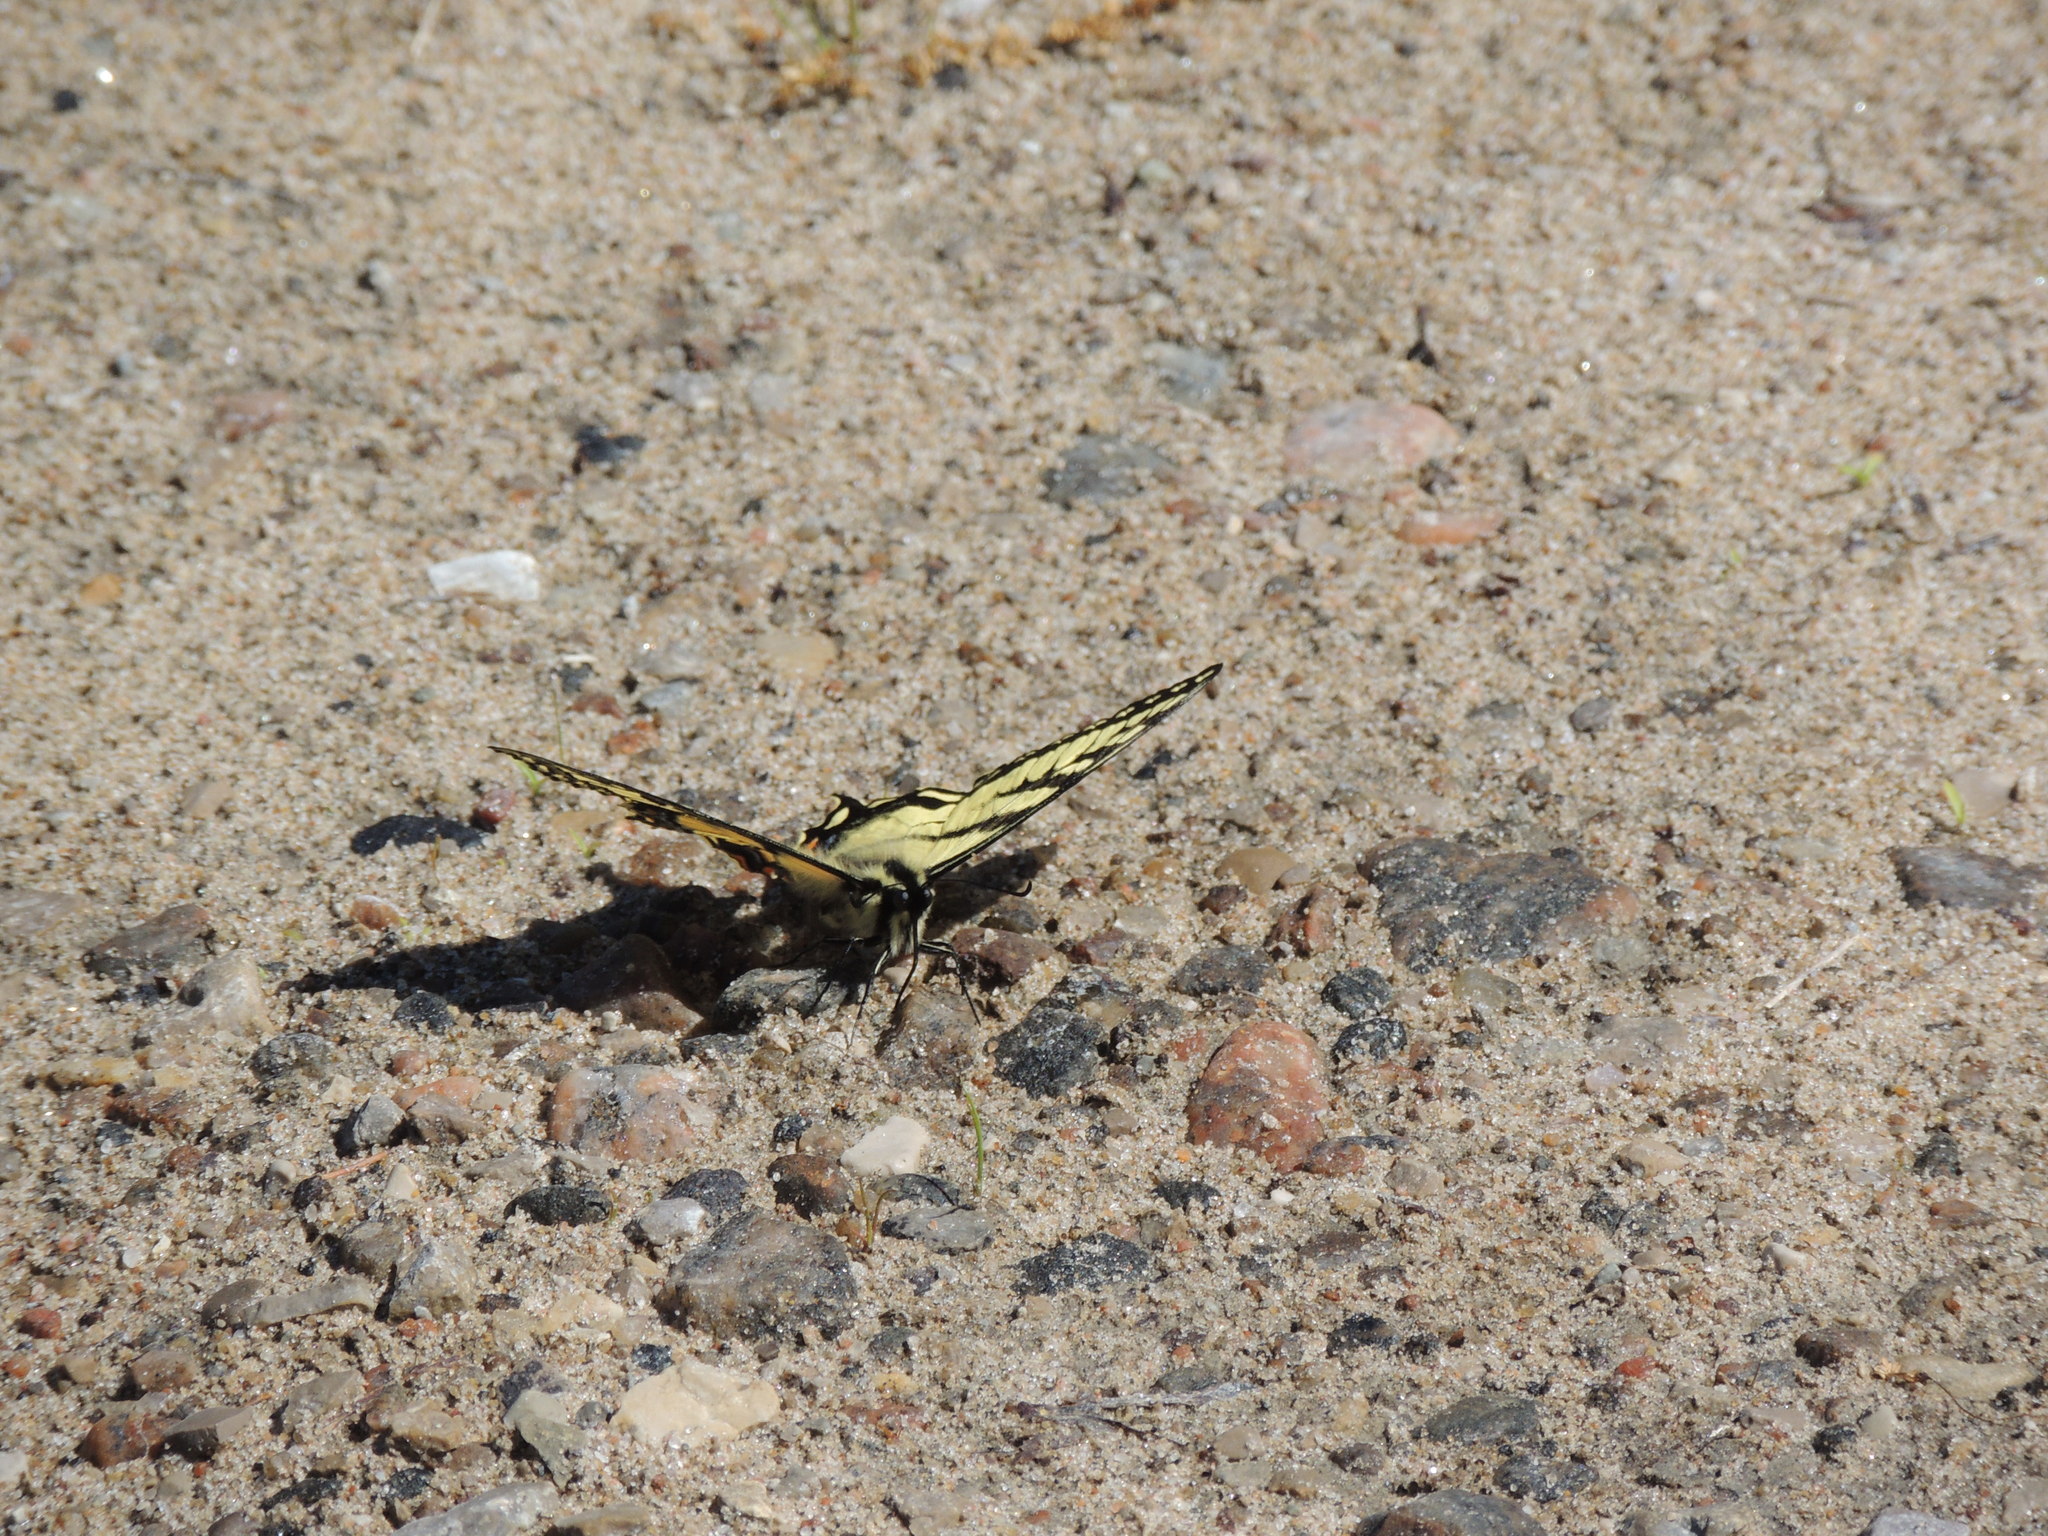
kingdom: Animalia
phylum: Arthropoda
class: Insecta
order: Lepidoptera
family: Papilionidae
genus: Papilio
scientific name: Papilio canadensis
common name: Canadian tiger swallowtail
